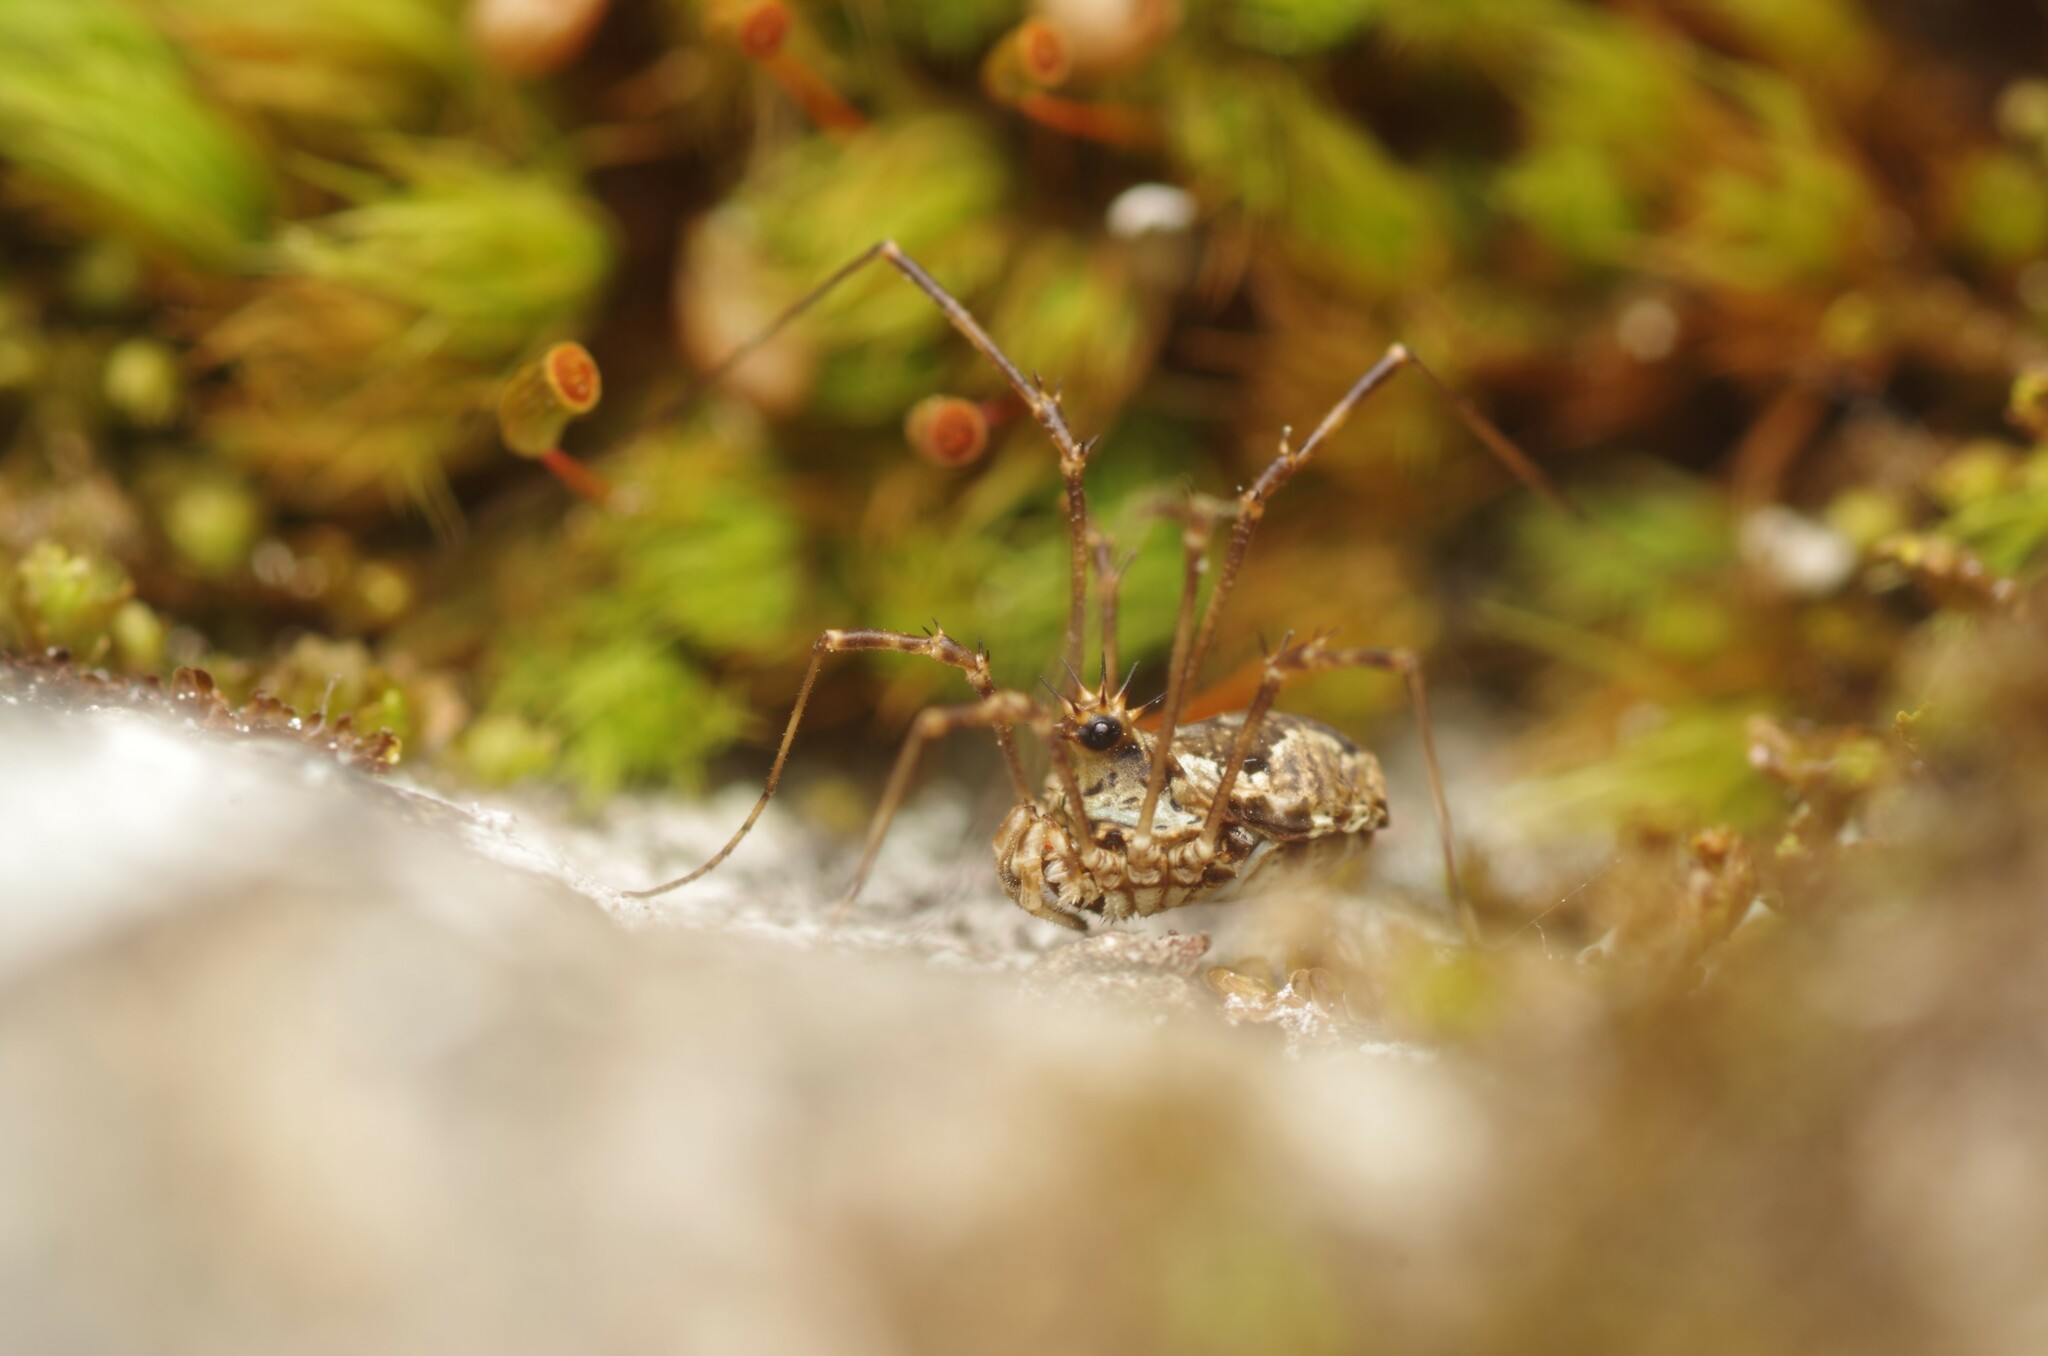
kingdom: Animalia
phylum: Arthropoda
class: Arachnida
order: Opiliones
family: Phalangiidae
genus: Megabunus
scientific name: Megabunus diadema
